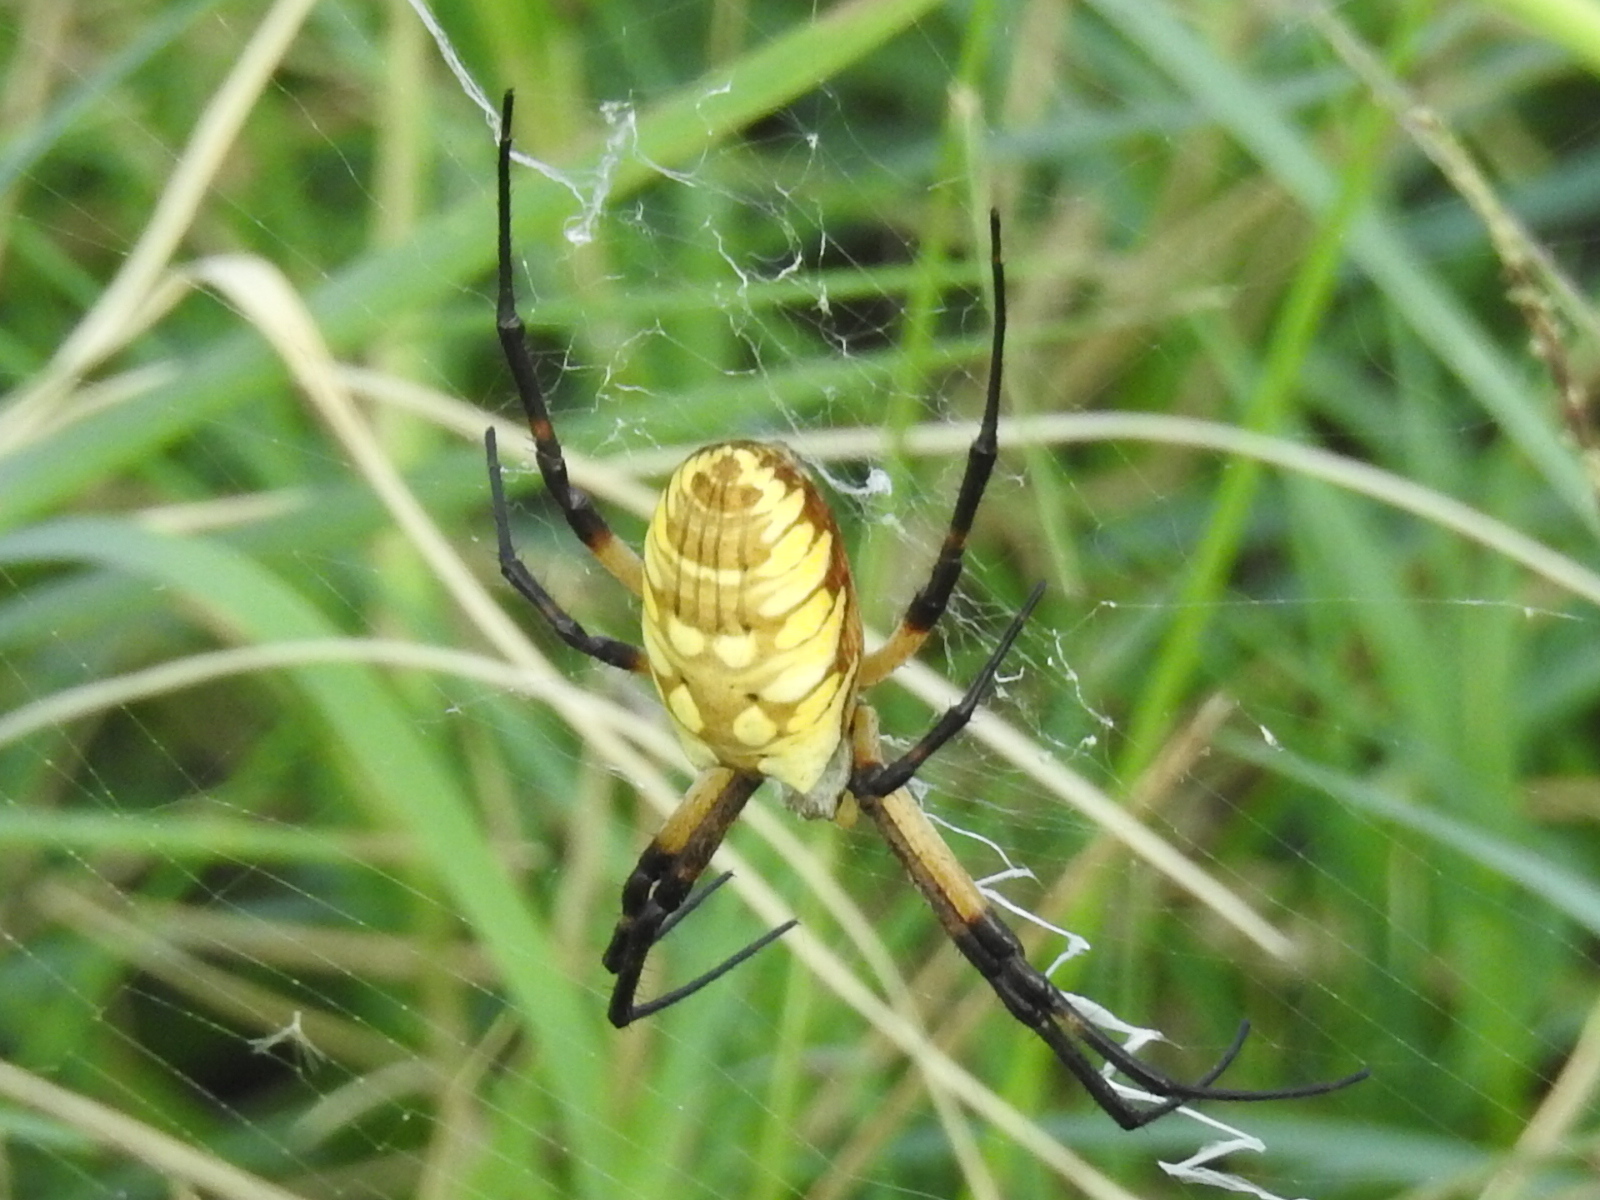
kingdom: Animalia
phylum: Arthropoda
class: Arachnida
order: Araneae
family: Araneidae
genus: Argiope
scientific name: Argiope aurantia
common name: Orb weavers
